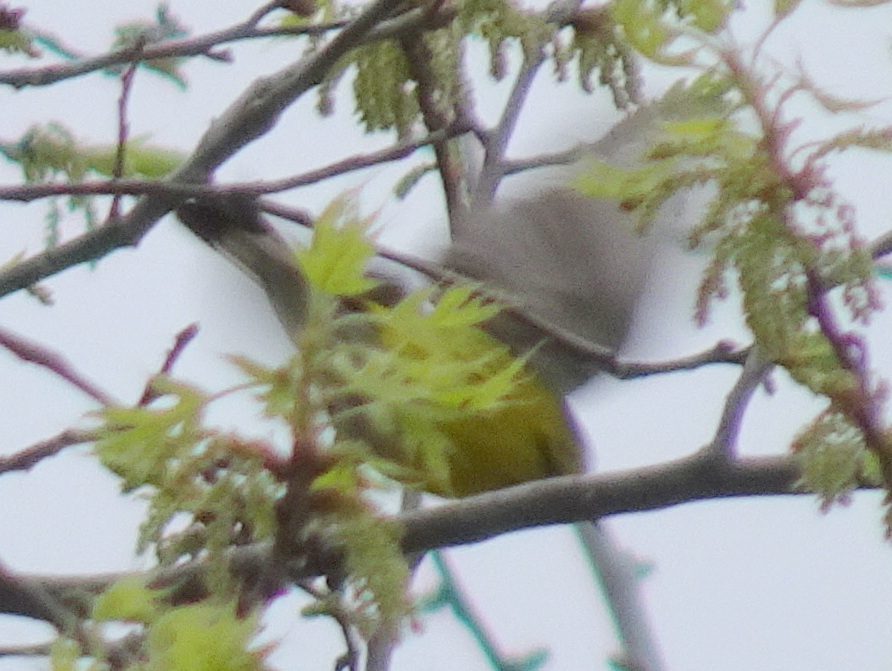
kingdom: Animalia
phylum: Chordata
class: Aves
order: Passeriformes
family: Parulidae
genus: Setophaga
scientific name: Setophaga magnolia
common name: Magnolia warbler
